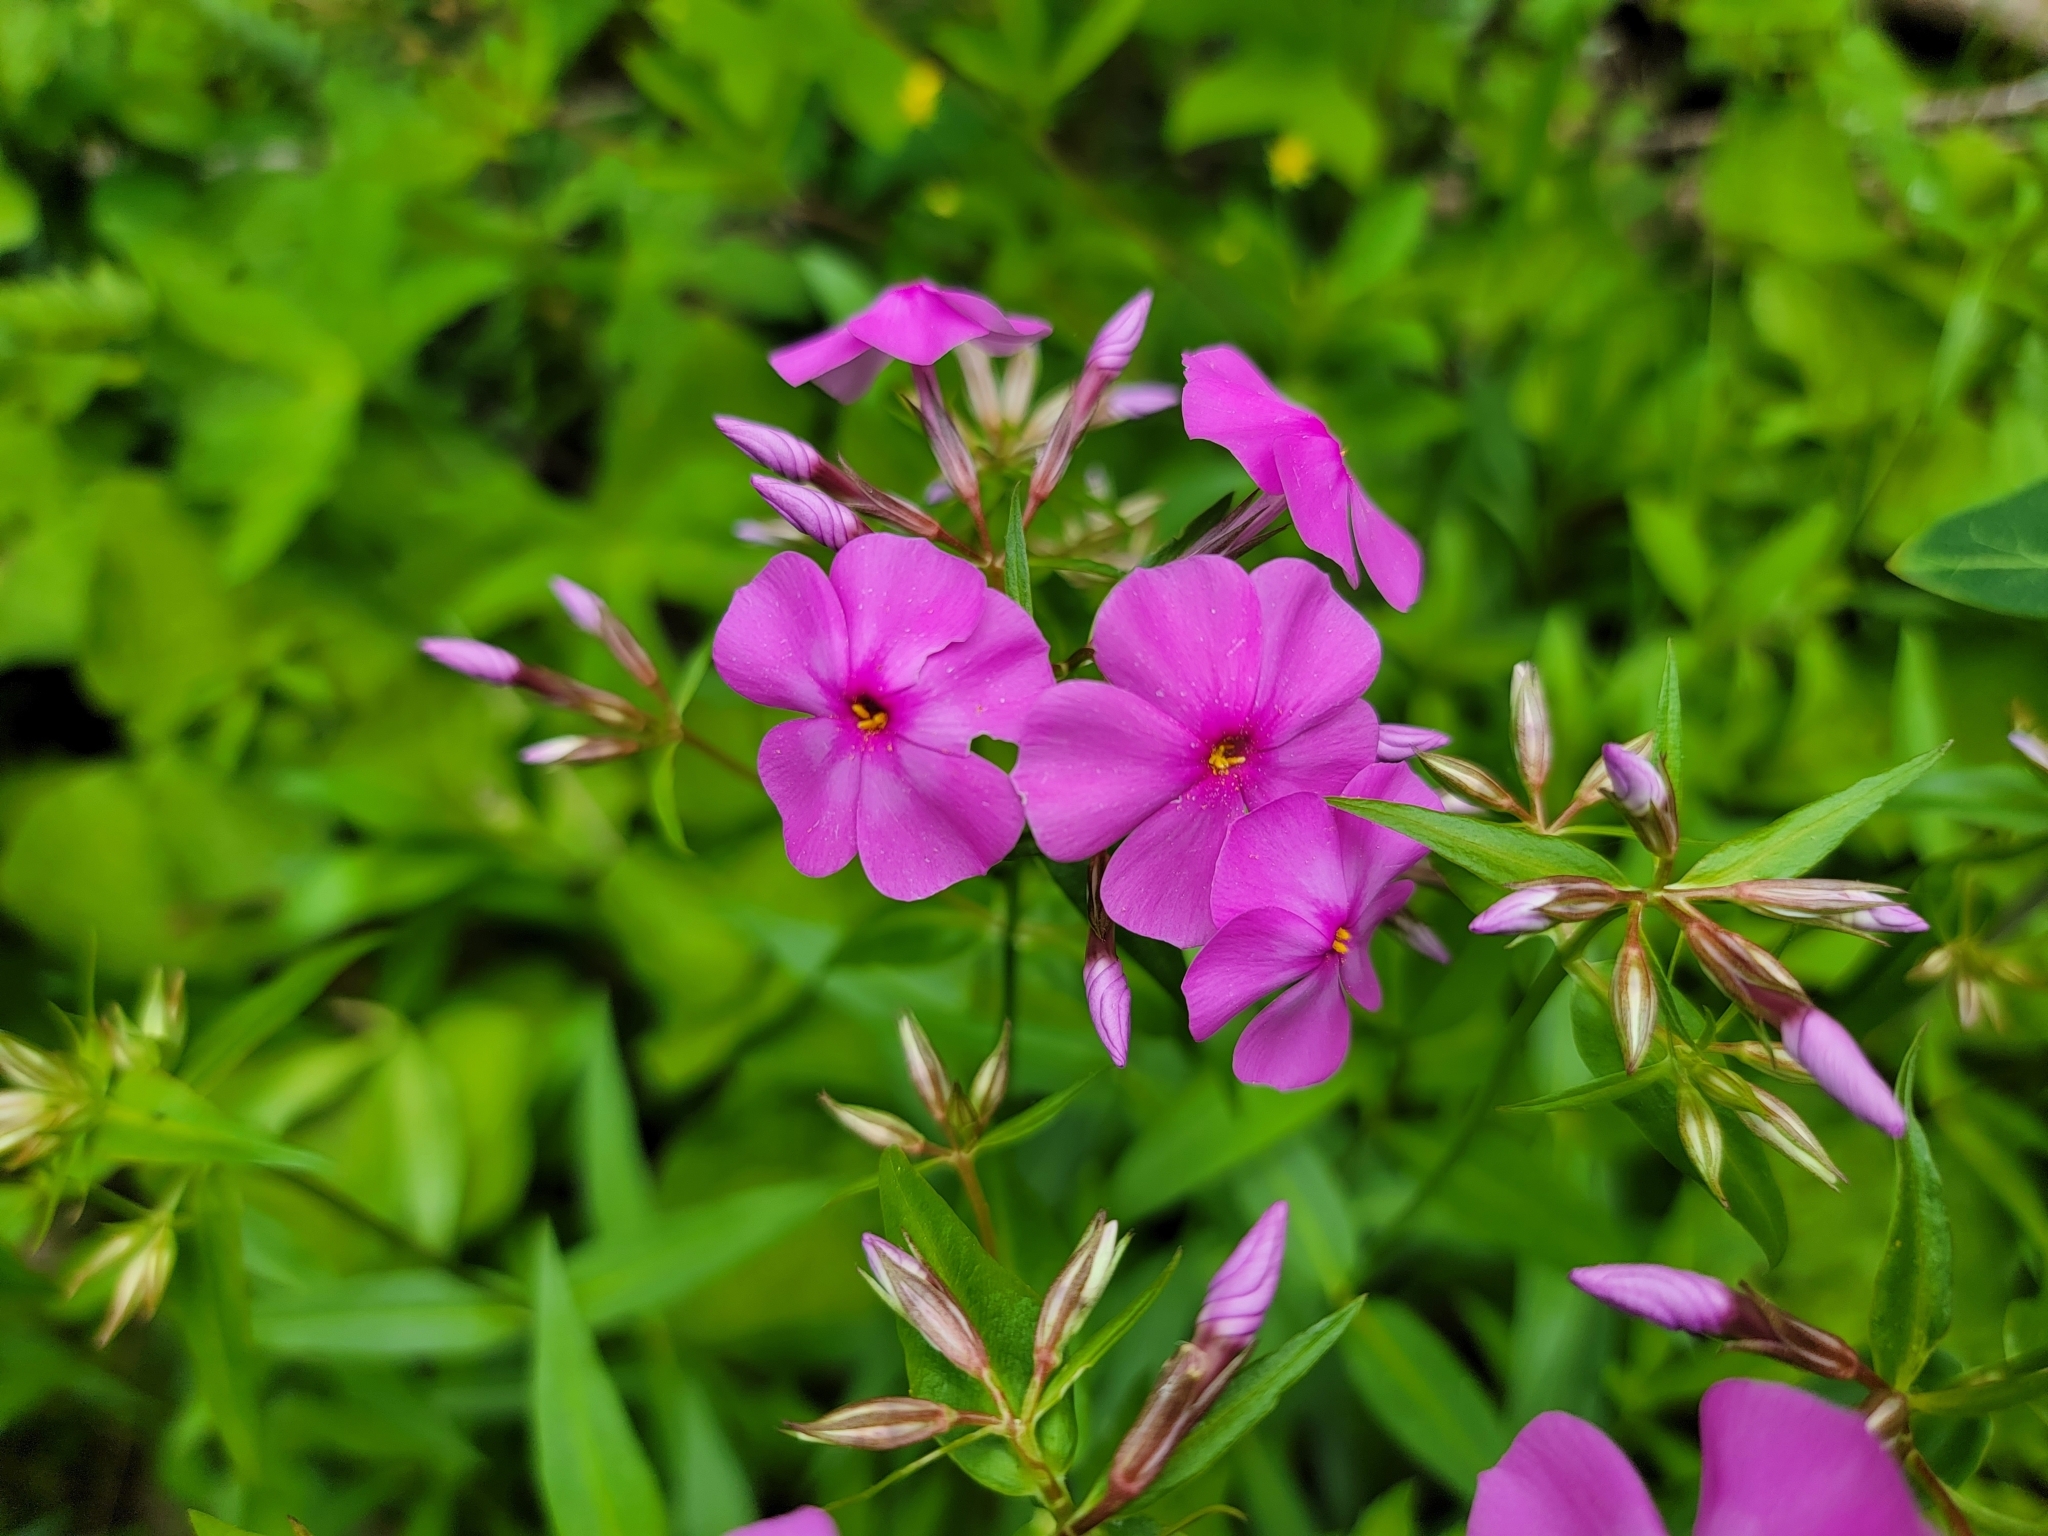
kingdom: Plantae
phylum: Tracheophyta
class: Magnoliopsida
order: Ericales
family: Polemoniaceae
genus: Phlox
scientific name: Phlox glaberrima
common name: Smooth phlox
